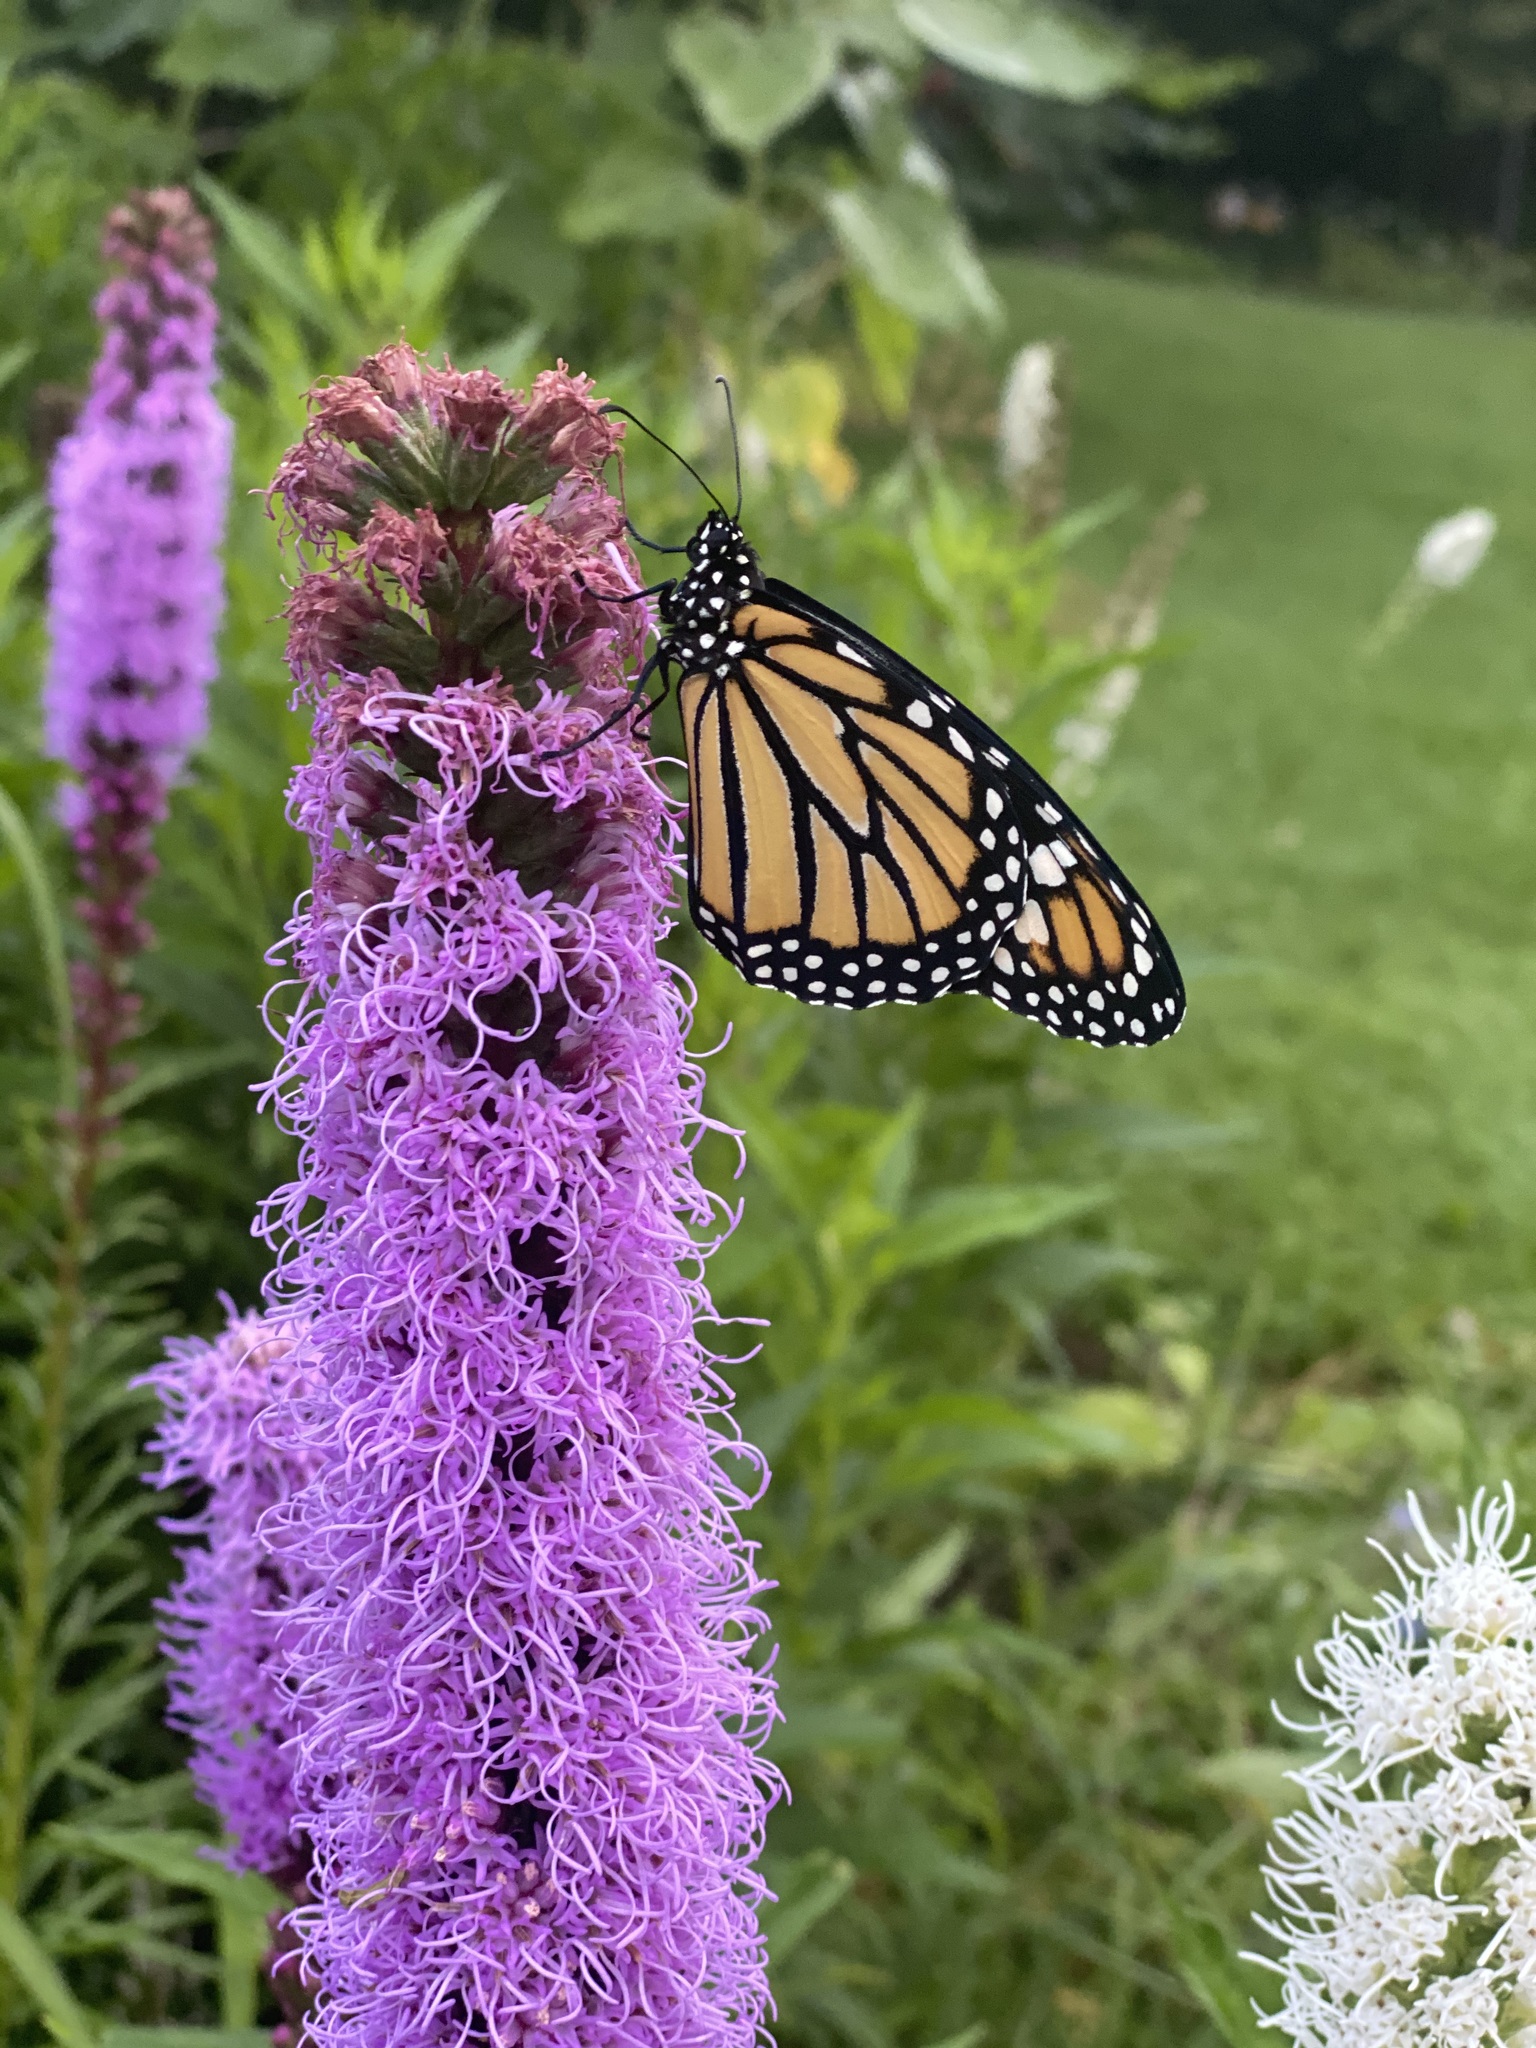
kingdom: Animalia
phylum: Arthropoda
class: Insecta
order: Lepidoptera
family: Nymphalidae
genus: Danaus
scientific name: Danaus plexippus
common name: Monarch
